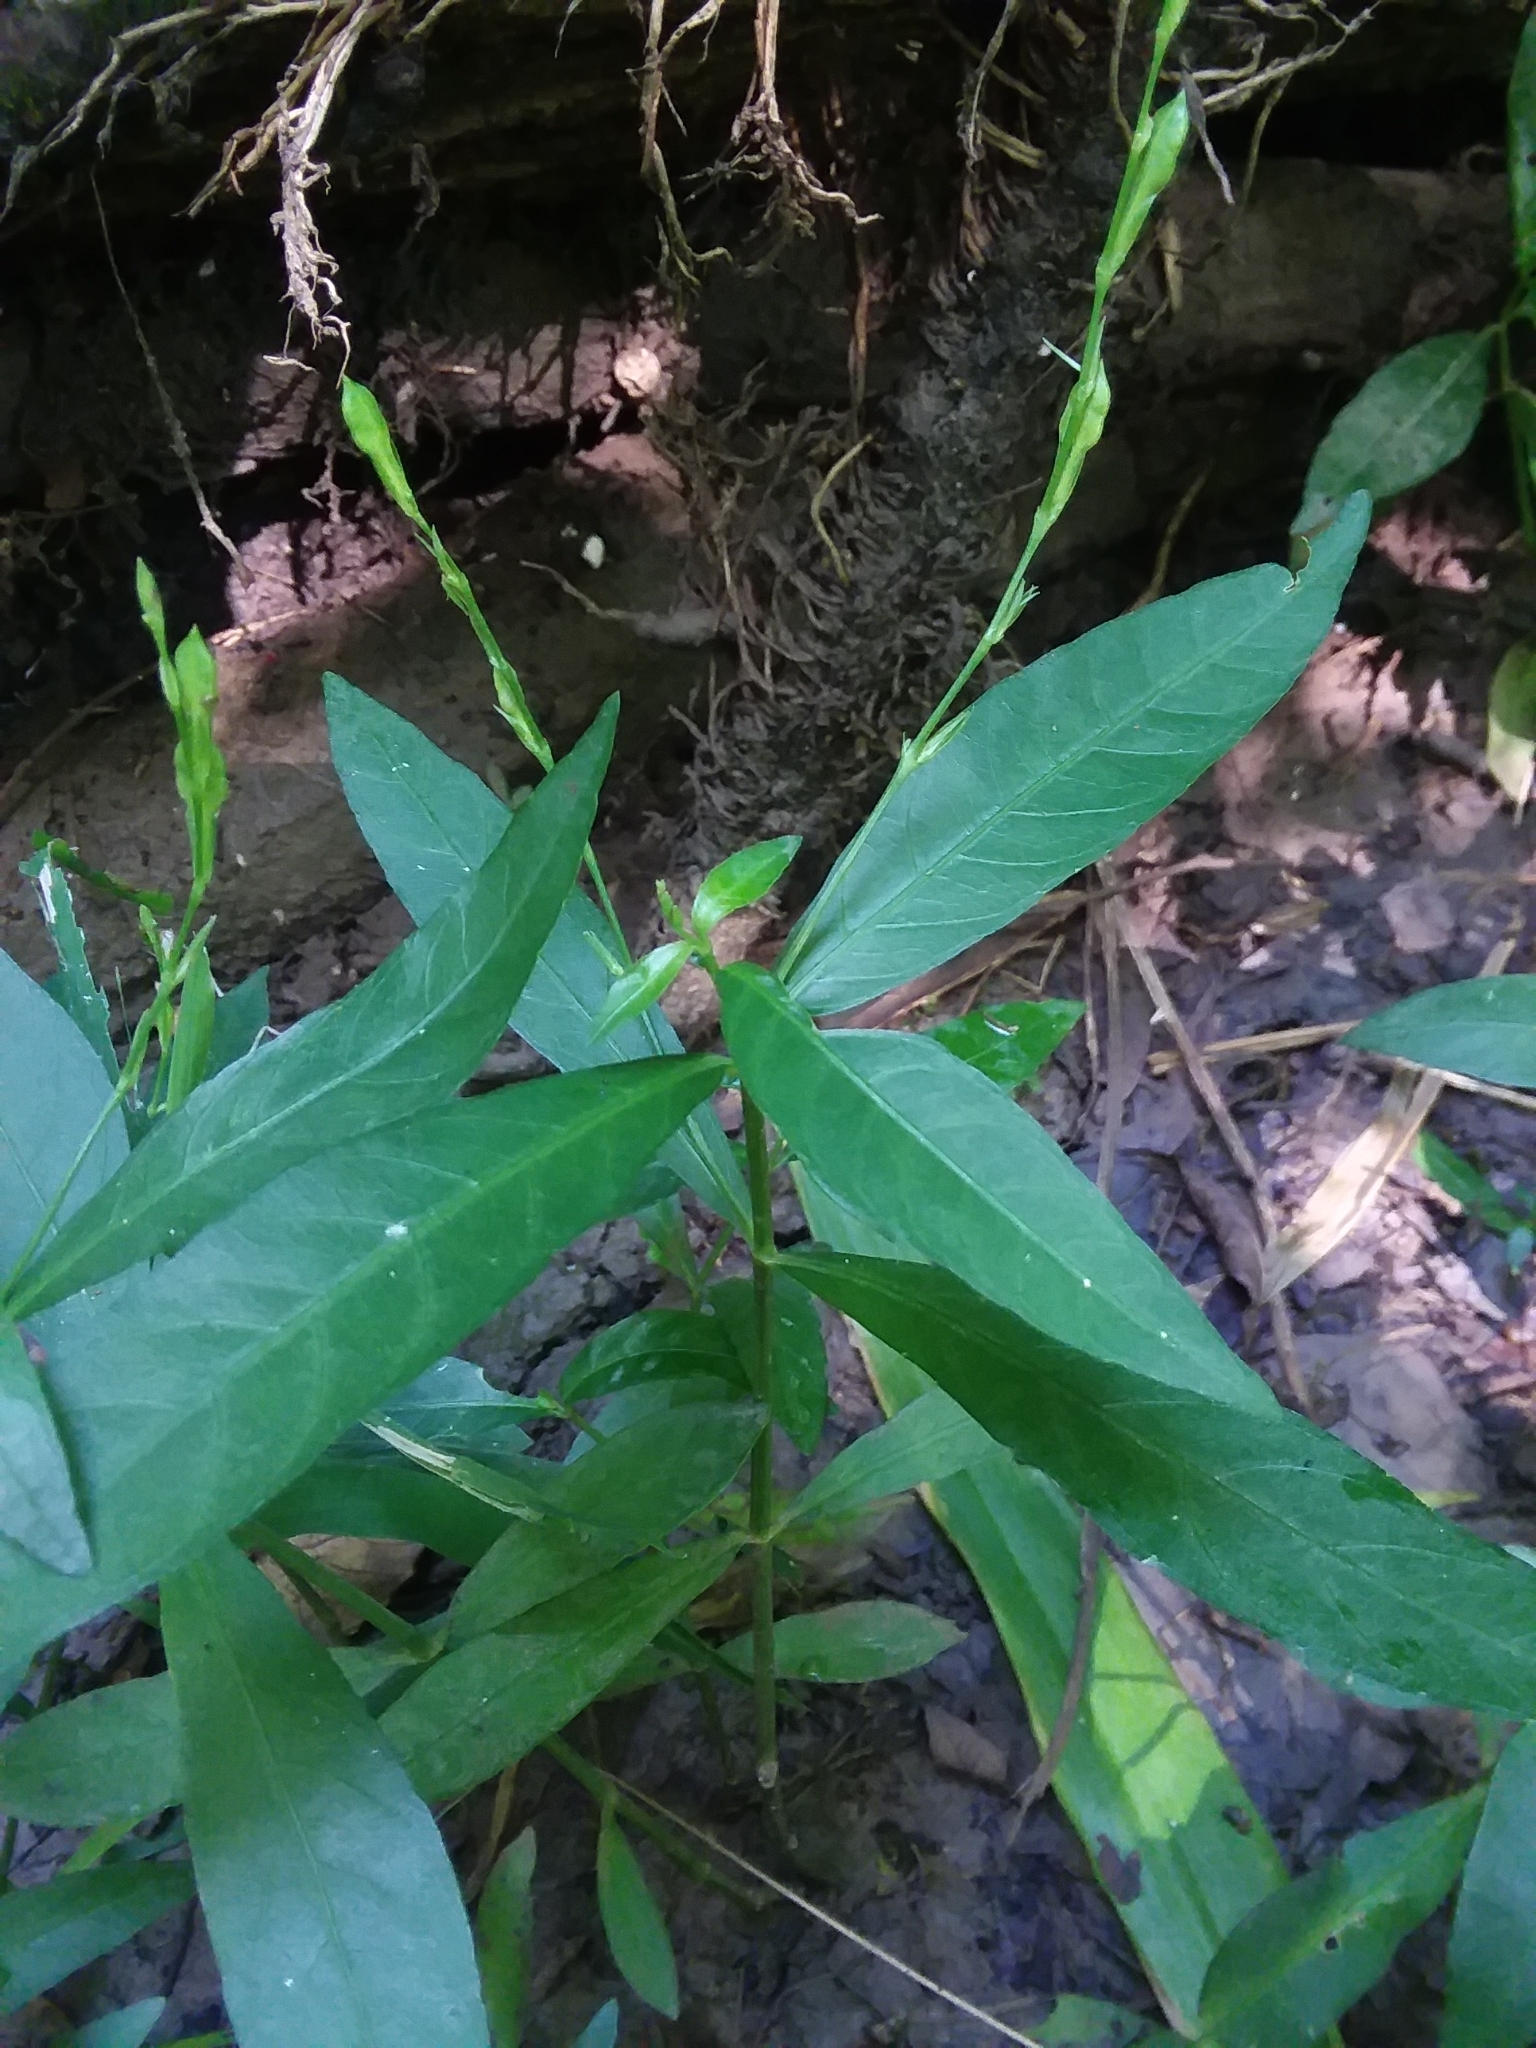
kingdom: Plantae
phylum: Tracheophyta
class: Magnoliopsida
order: Lamiales
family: Acanthaceae
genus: Justicia
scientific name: Justicia lanceolata
